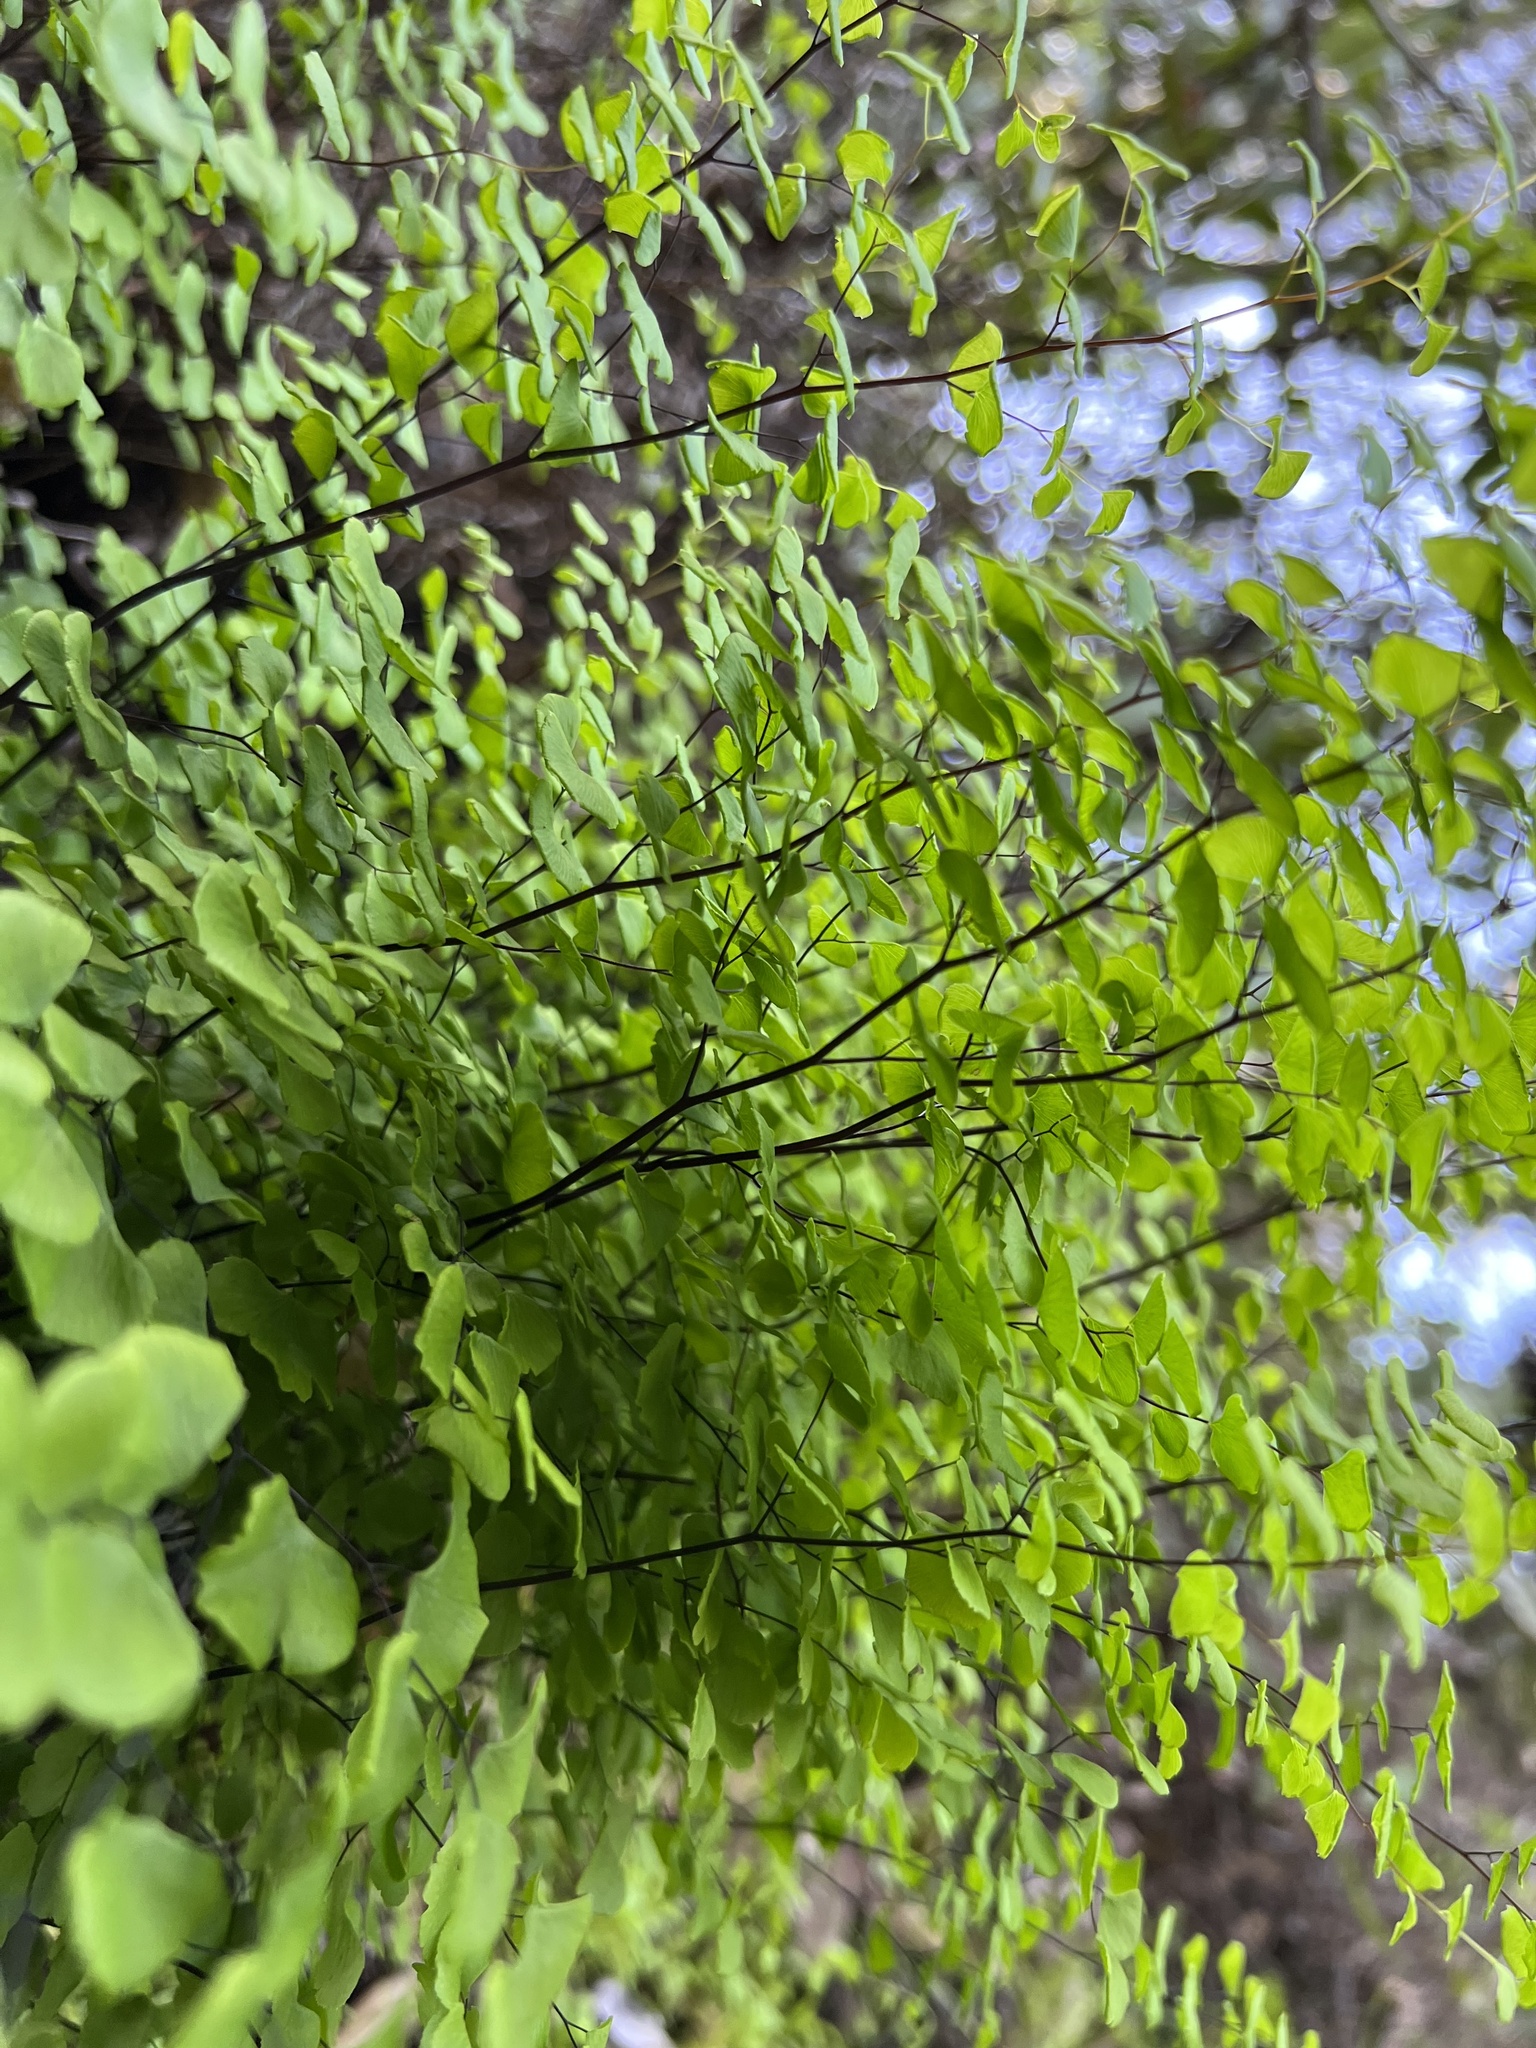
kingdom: Plantae
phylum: Tracheophyta
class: Polypodiopsida
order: Polypodiales
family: Pteridaceae
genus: Adiantum
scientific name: Adiantum jordanii
